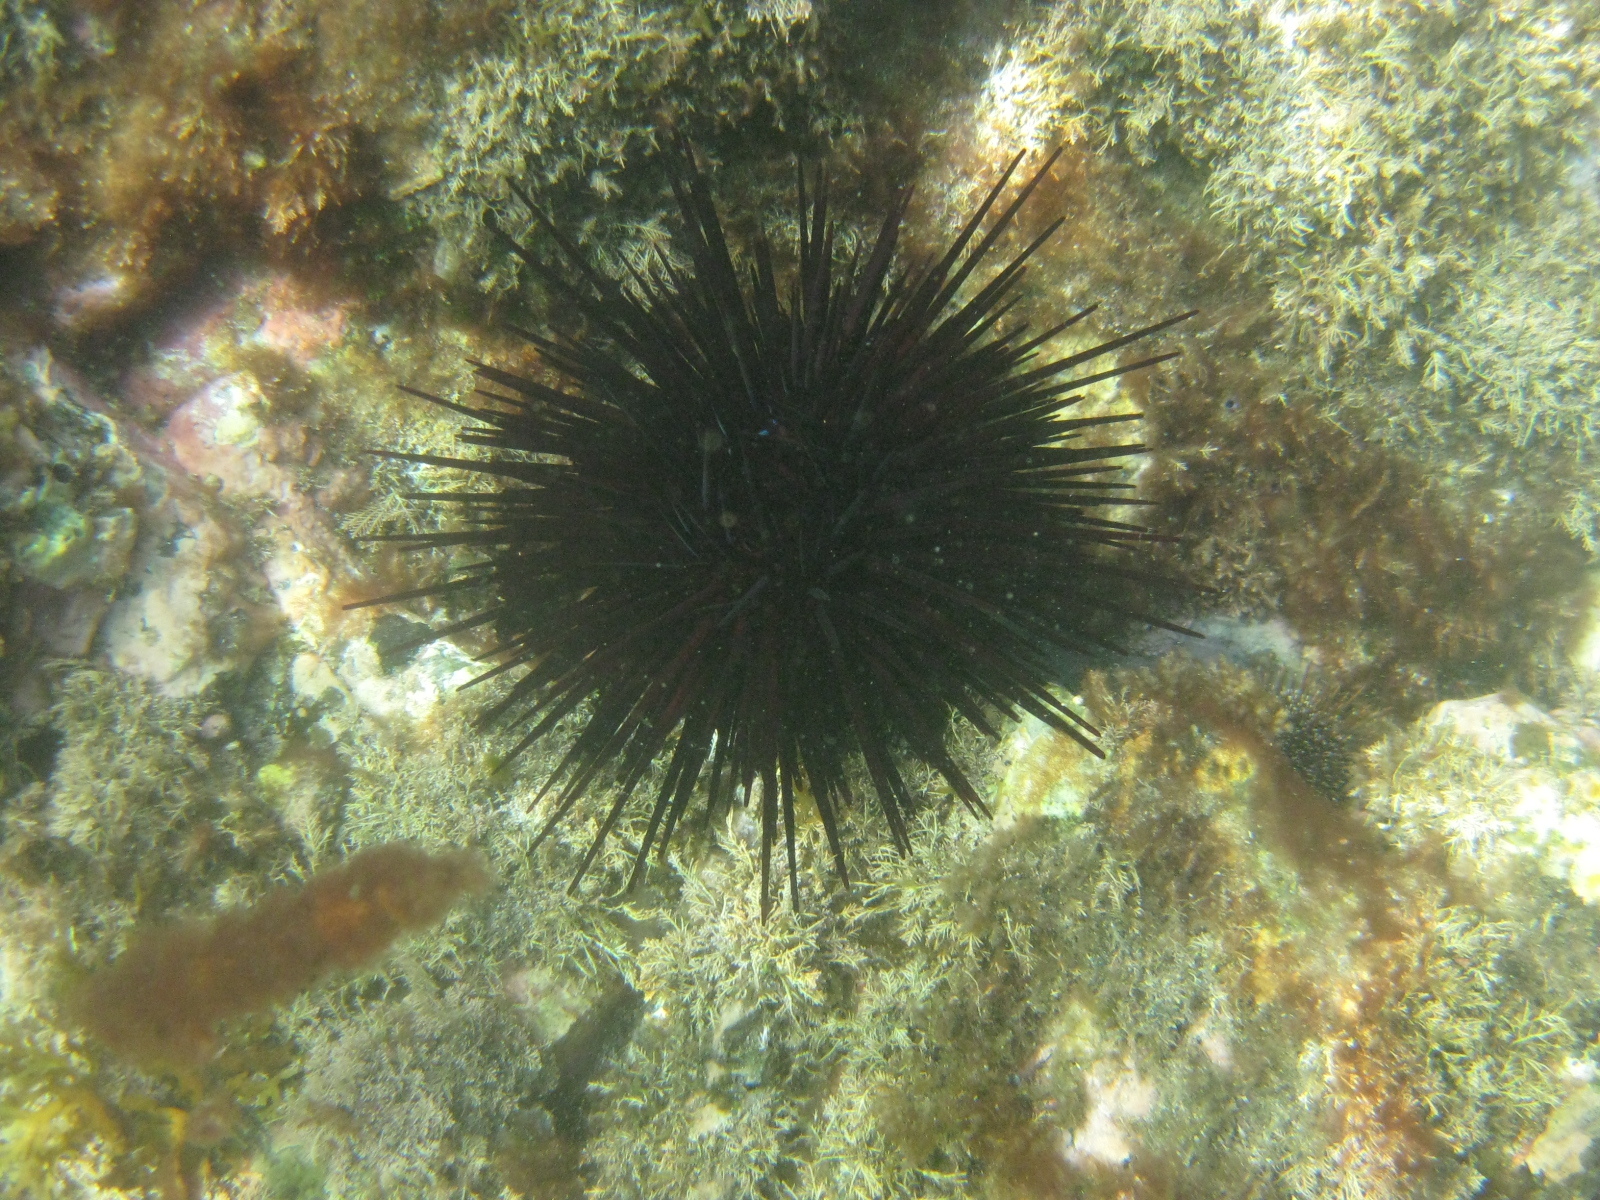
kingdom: Animalia
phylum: Echinodermata
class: Echinoidea
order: Diadematoida
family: Diadematidae
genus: Centrostephanus
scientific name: Centrostephanus rodgersii
